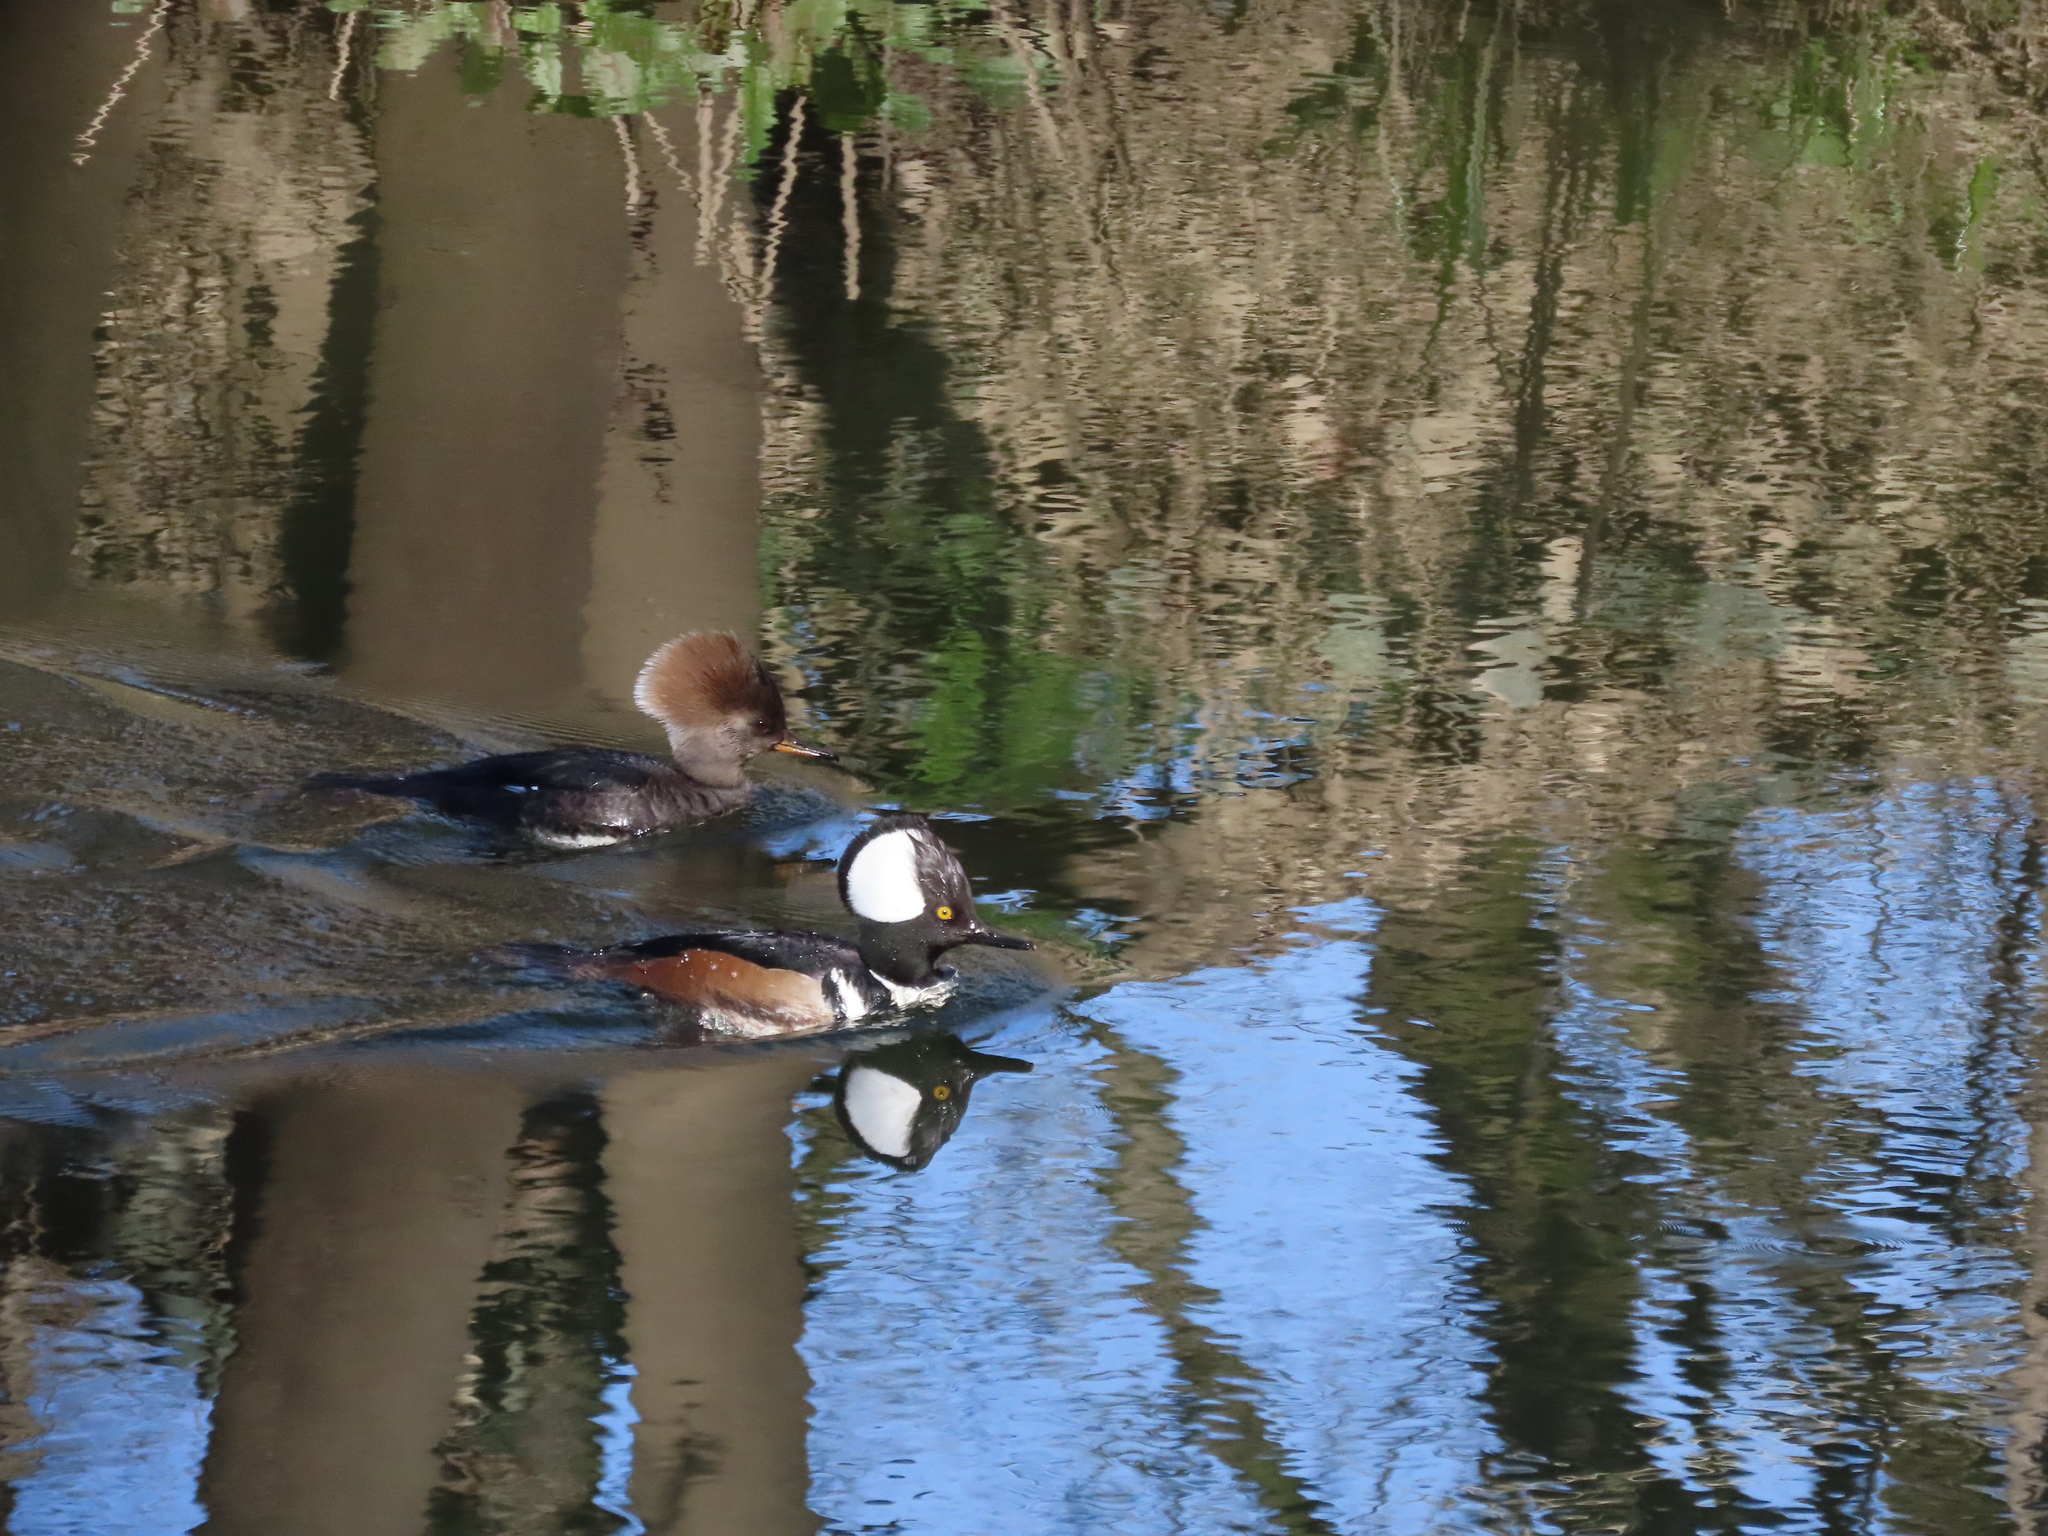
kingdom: Animalia
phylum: Chordata
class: Aves
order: Anseriformes
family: Anatidae
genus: Lophodytes
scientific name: Lophodytes cucullatus
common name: Hooded merganser
